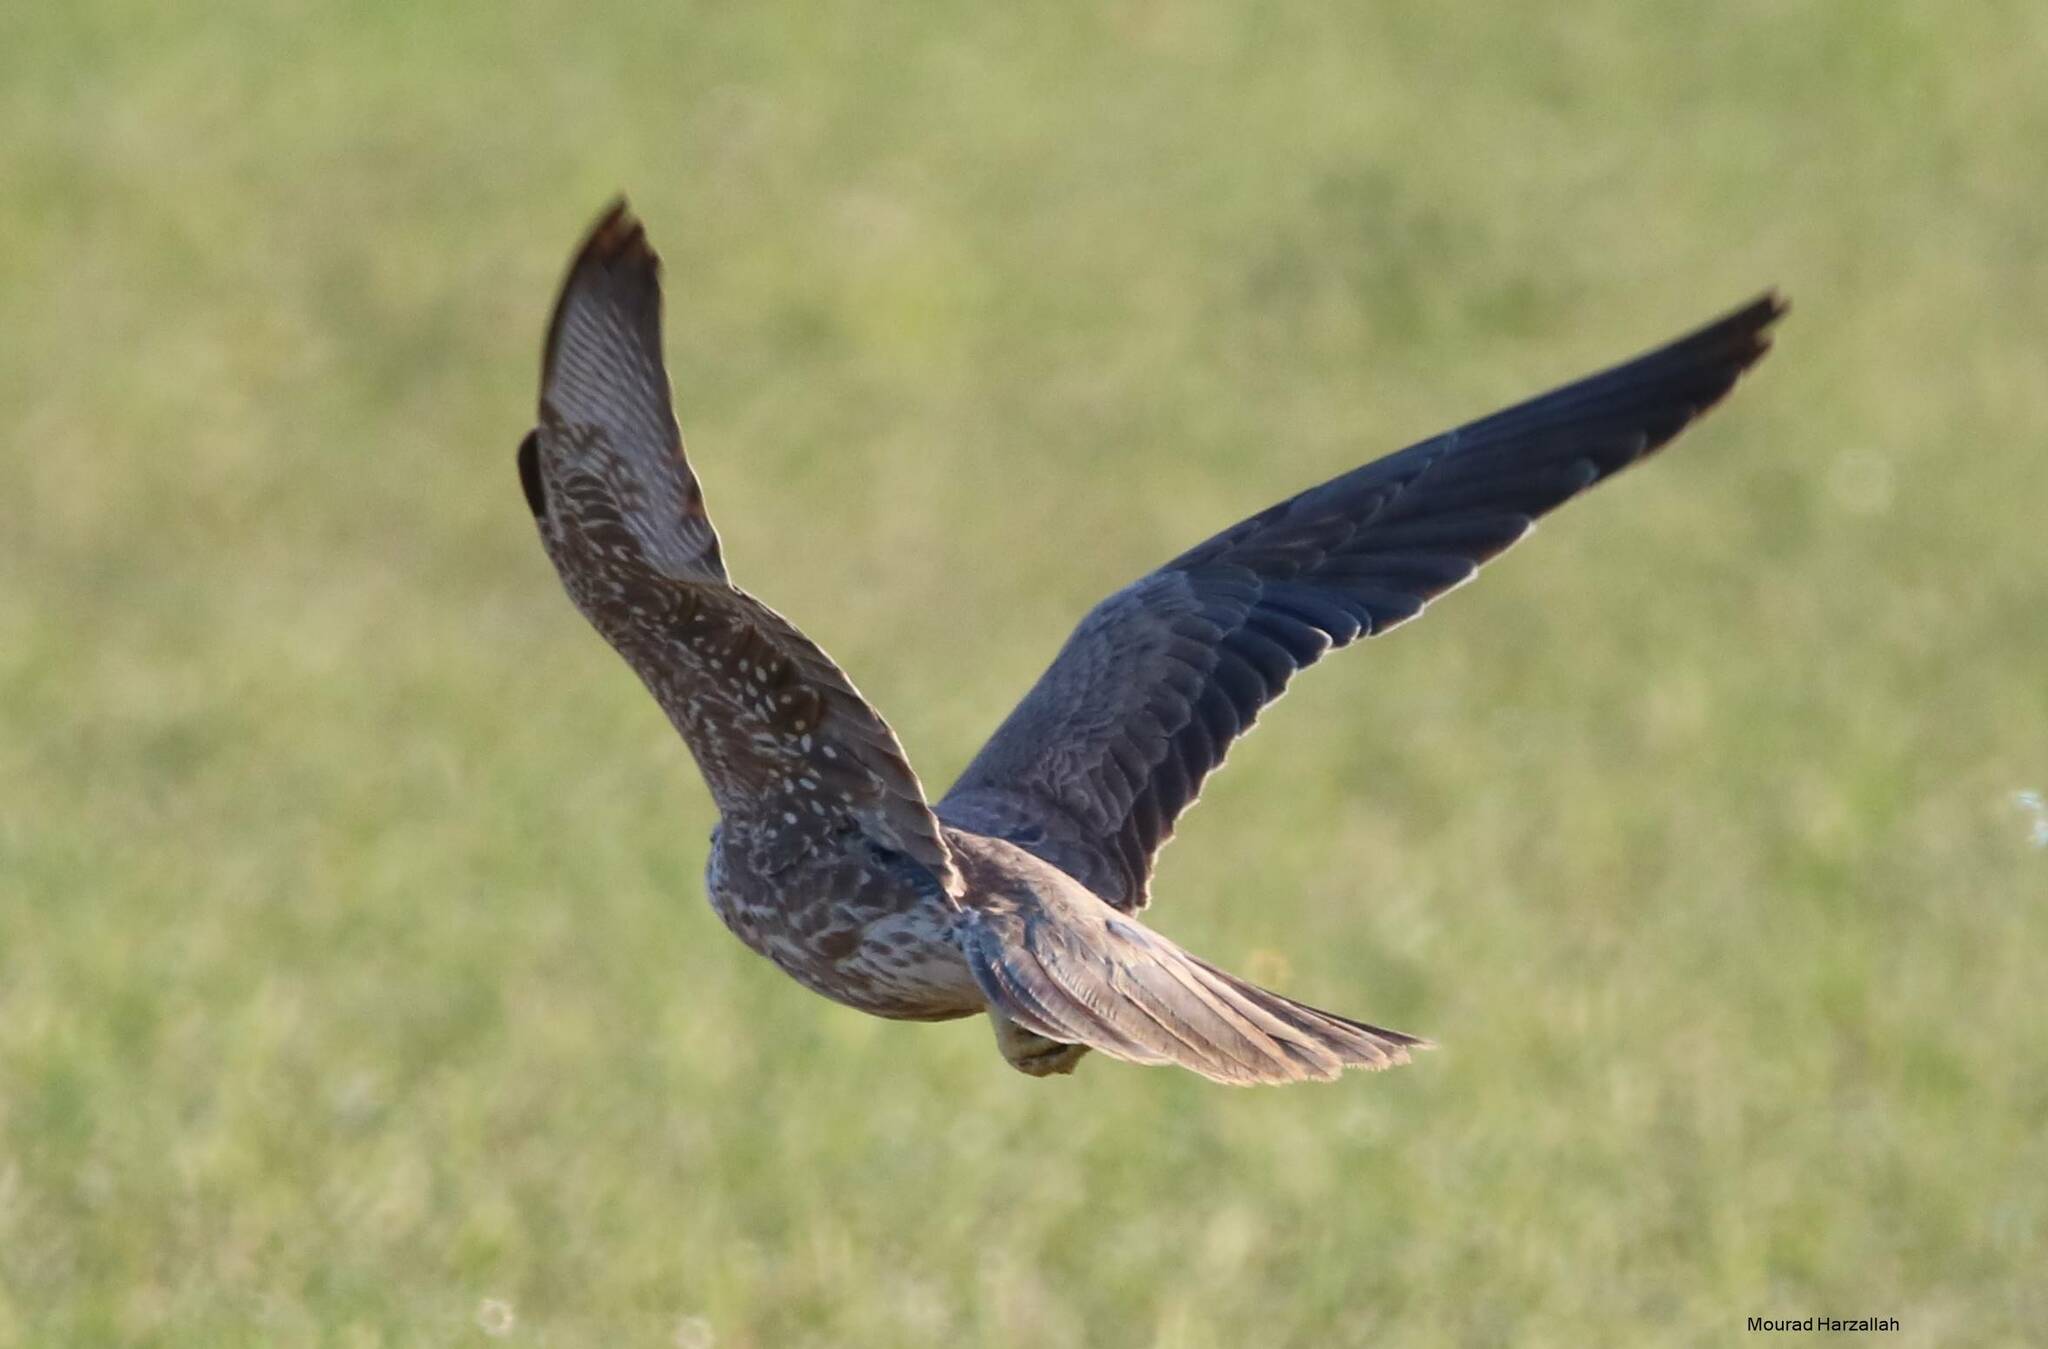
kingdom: Animalia
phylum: Chordata
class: Aves
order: Falconiformes
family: Falconidae
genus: Falco
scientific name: Falco biarmicus
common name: Lanner falcon
